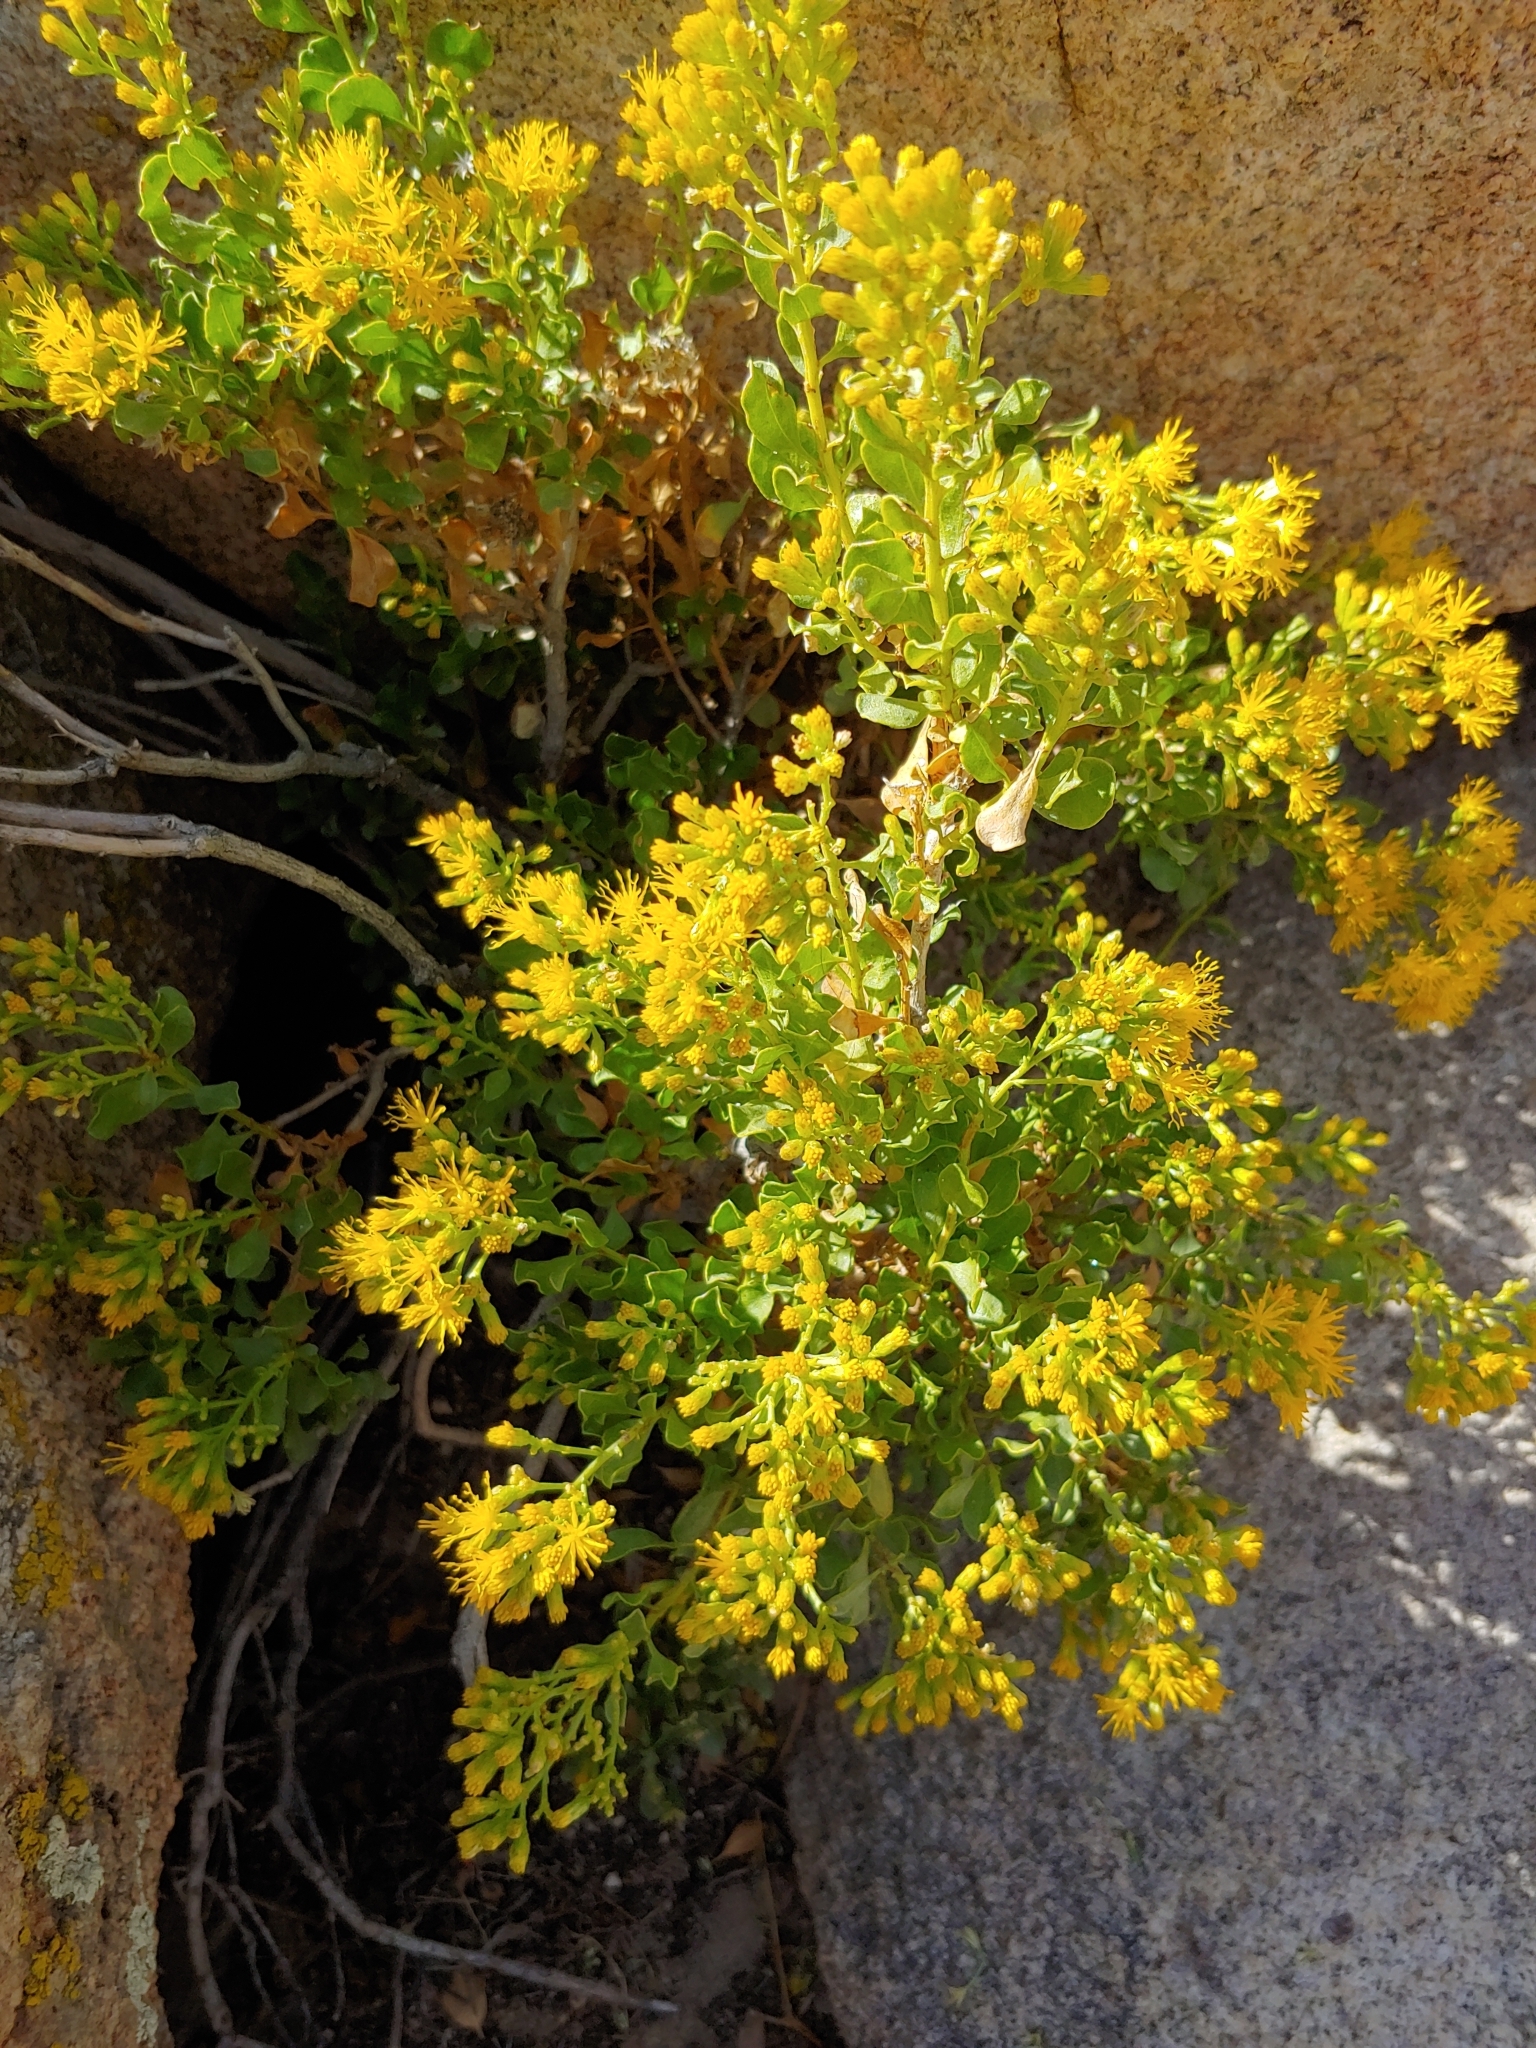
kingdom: Plantae
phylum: Tracheophyta
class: Magnoliopsida
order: Asterales
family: Asteraceae
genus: Ericameria
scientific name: Ericameria cuneata
